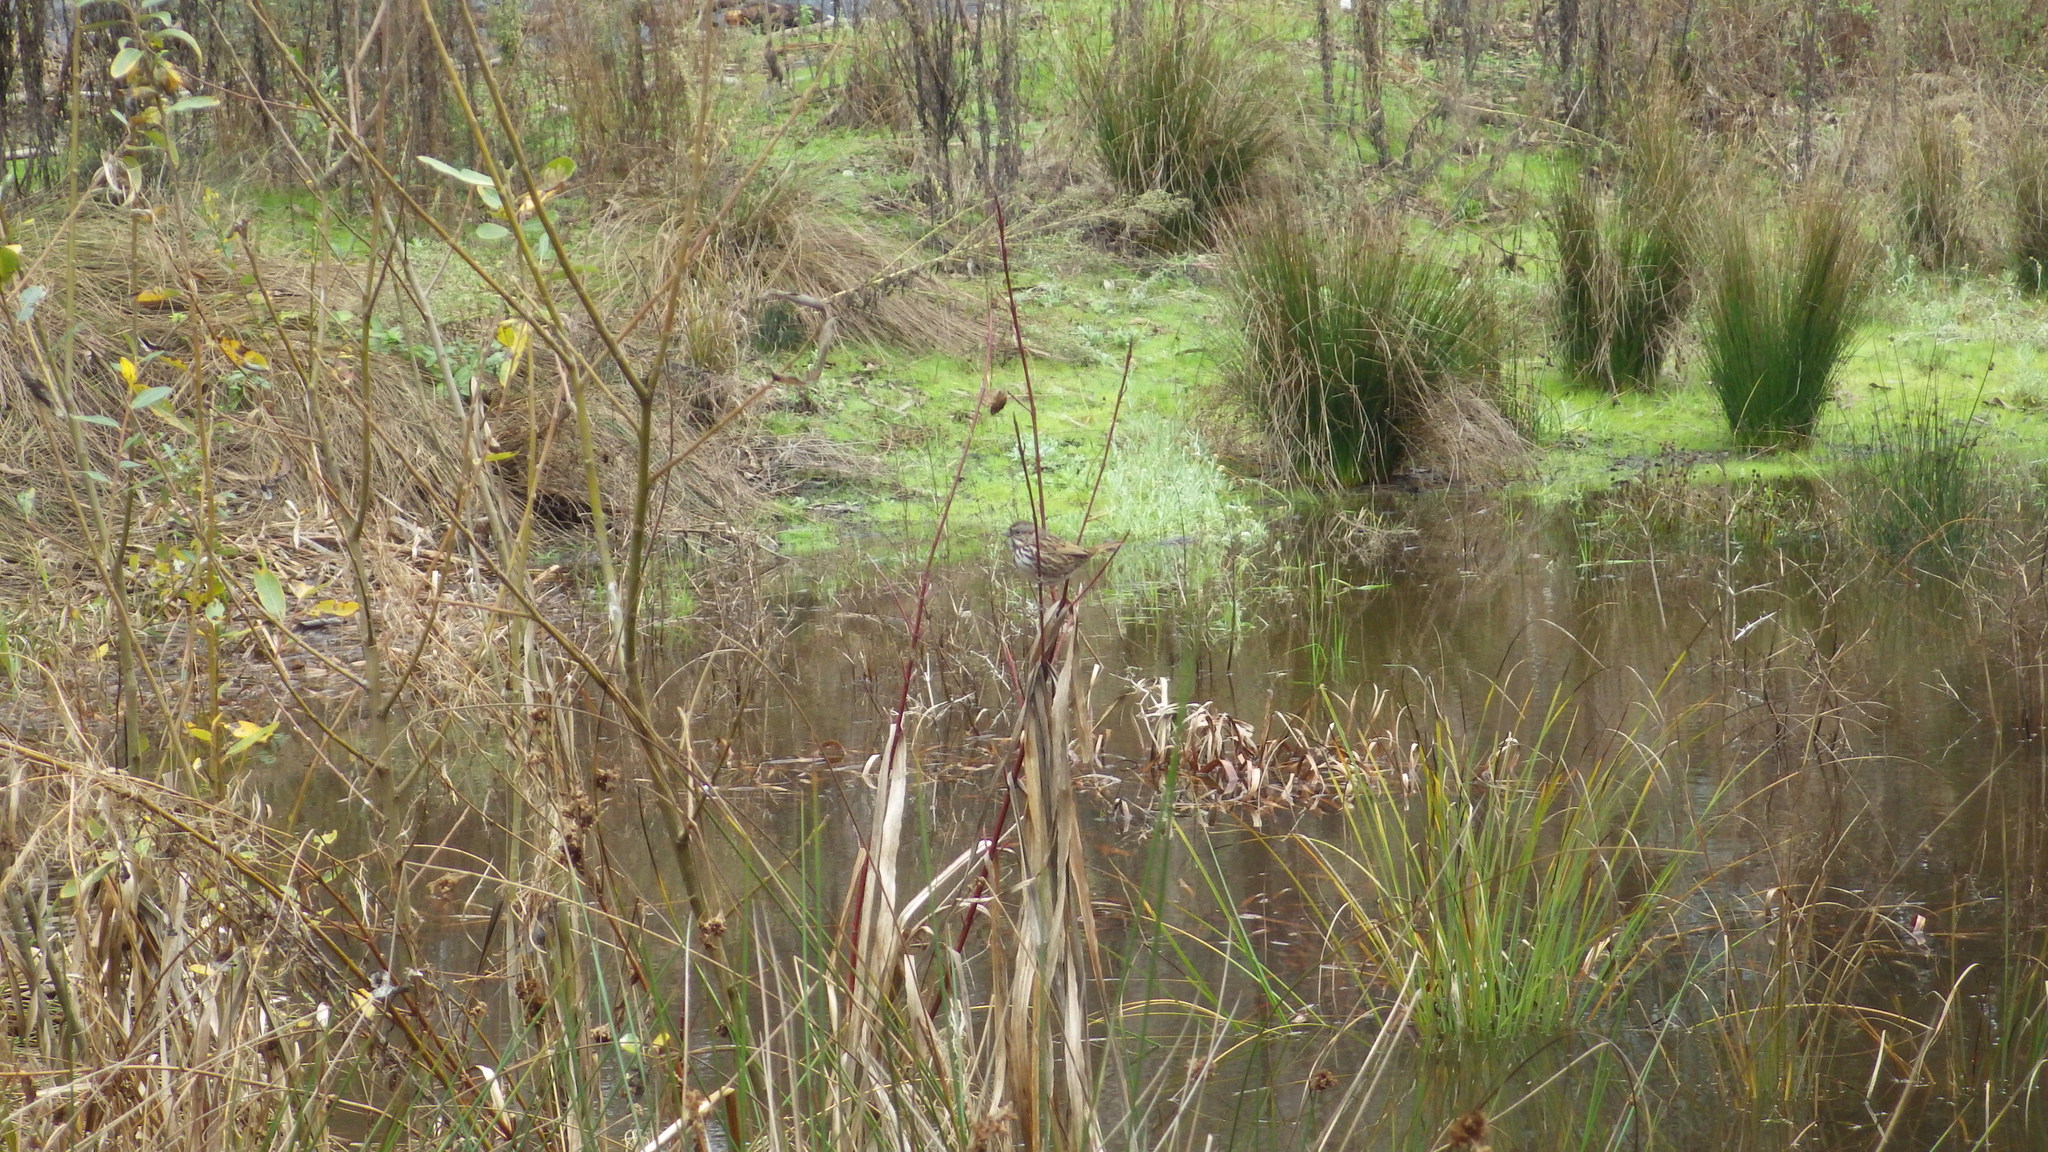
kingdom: Animalia
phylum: Chordata
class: Aves
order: Passeriformes
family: Passerellidae
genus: Melospiza
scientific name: Melospiza melodia
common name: Song sparrow
